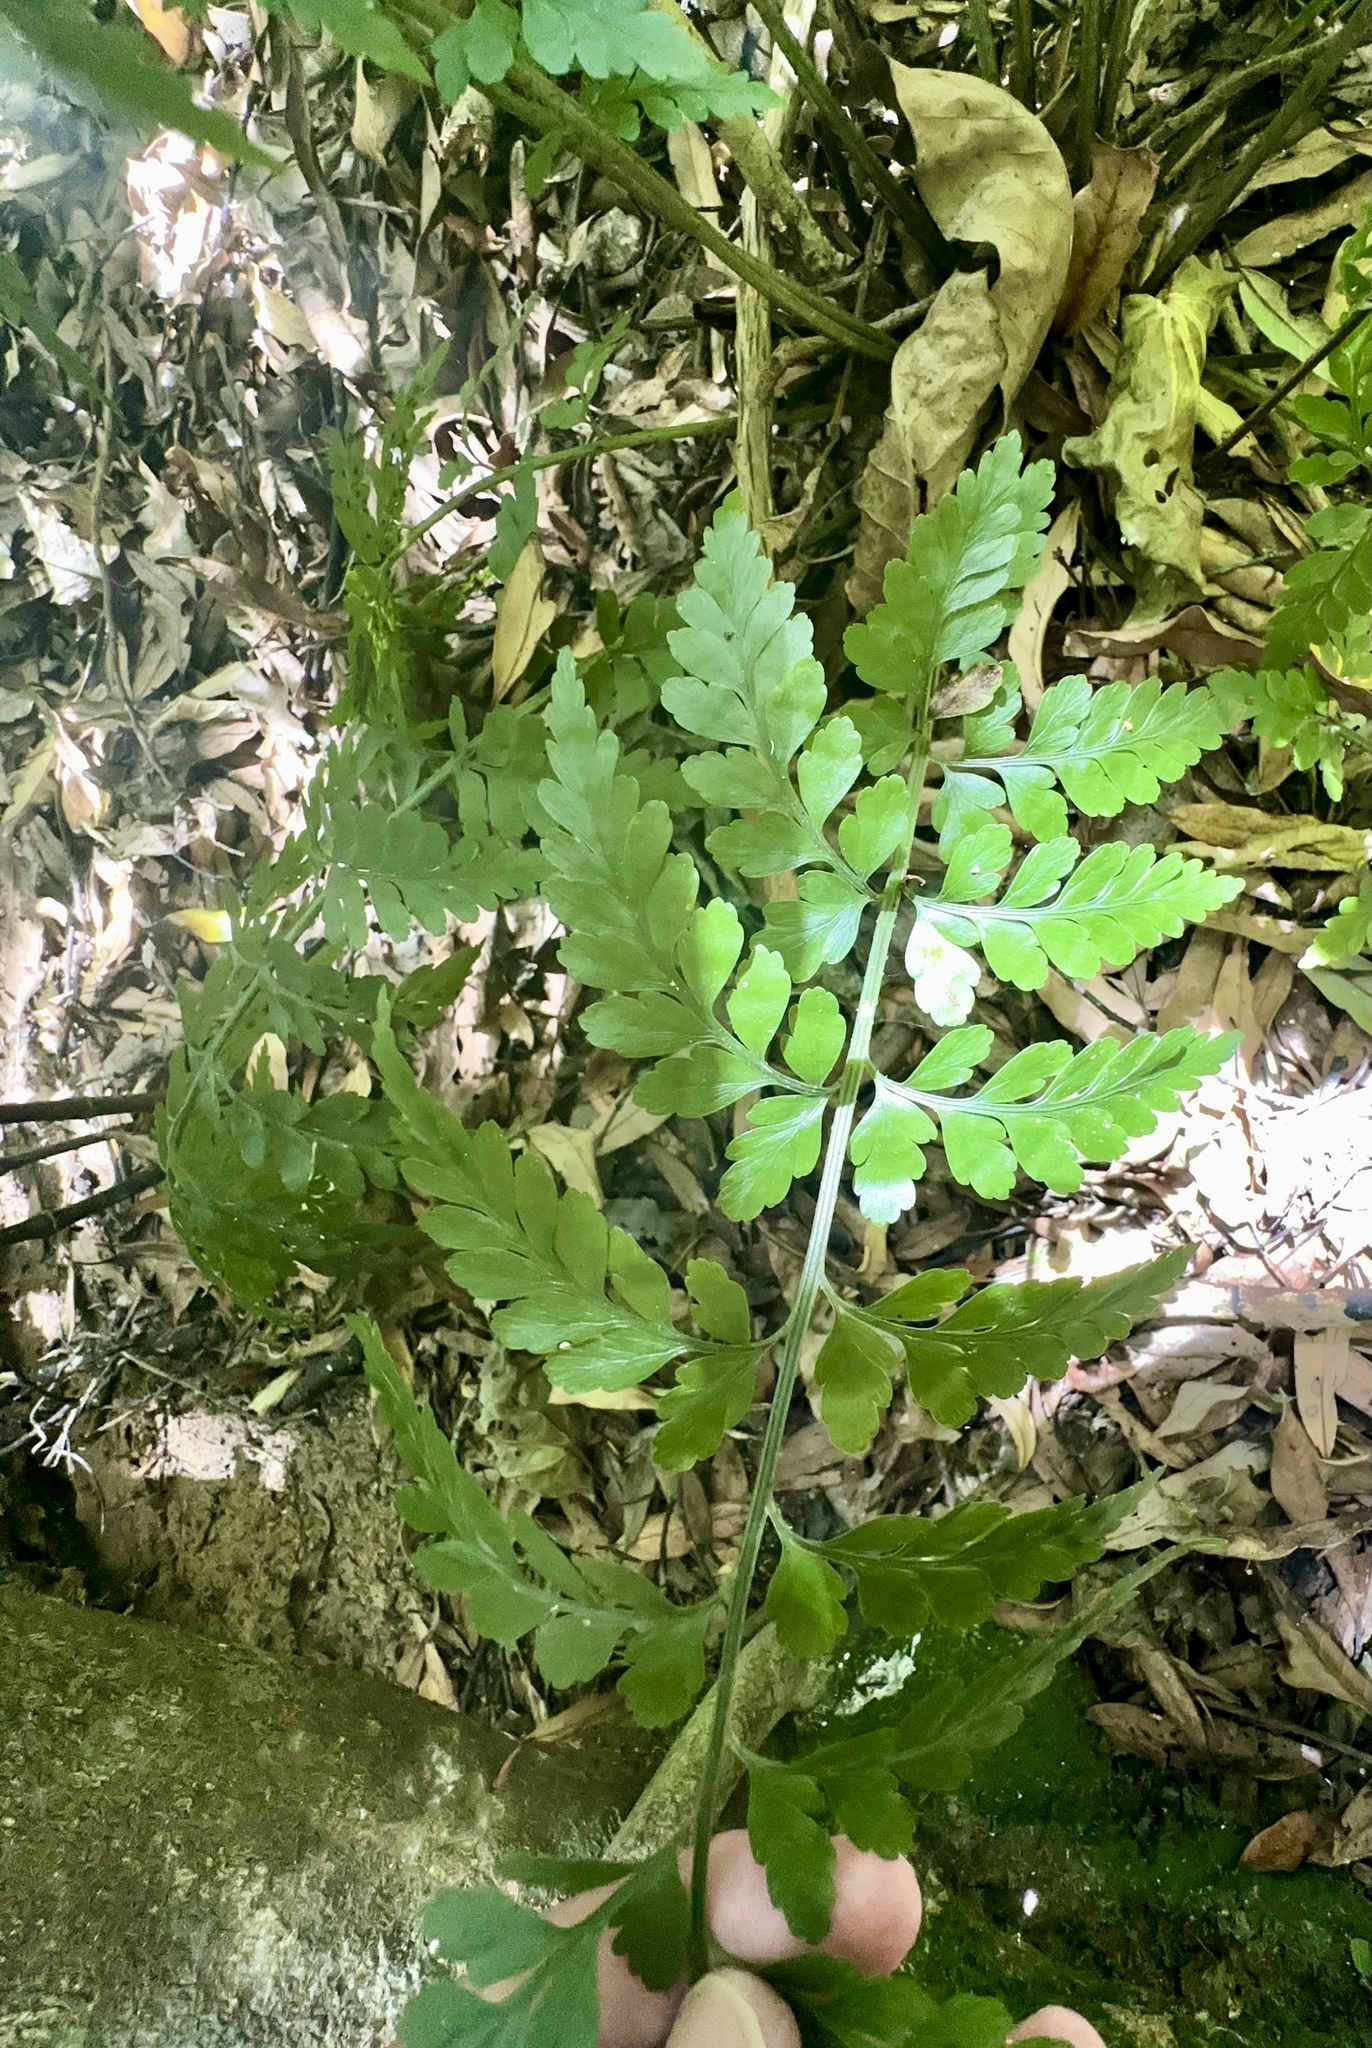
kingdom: Plantae
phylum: Tracheophyta
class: Polypodiopsida
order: Polypodiales
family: Aspleniaceae
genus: Asplenium
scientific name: Asplenium
